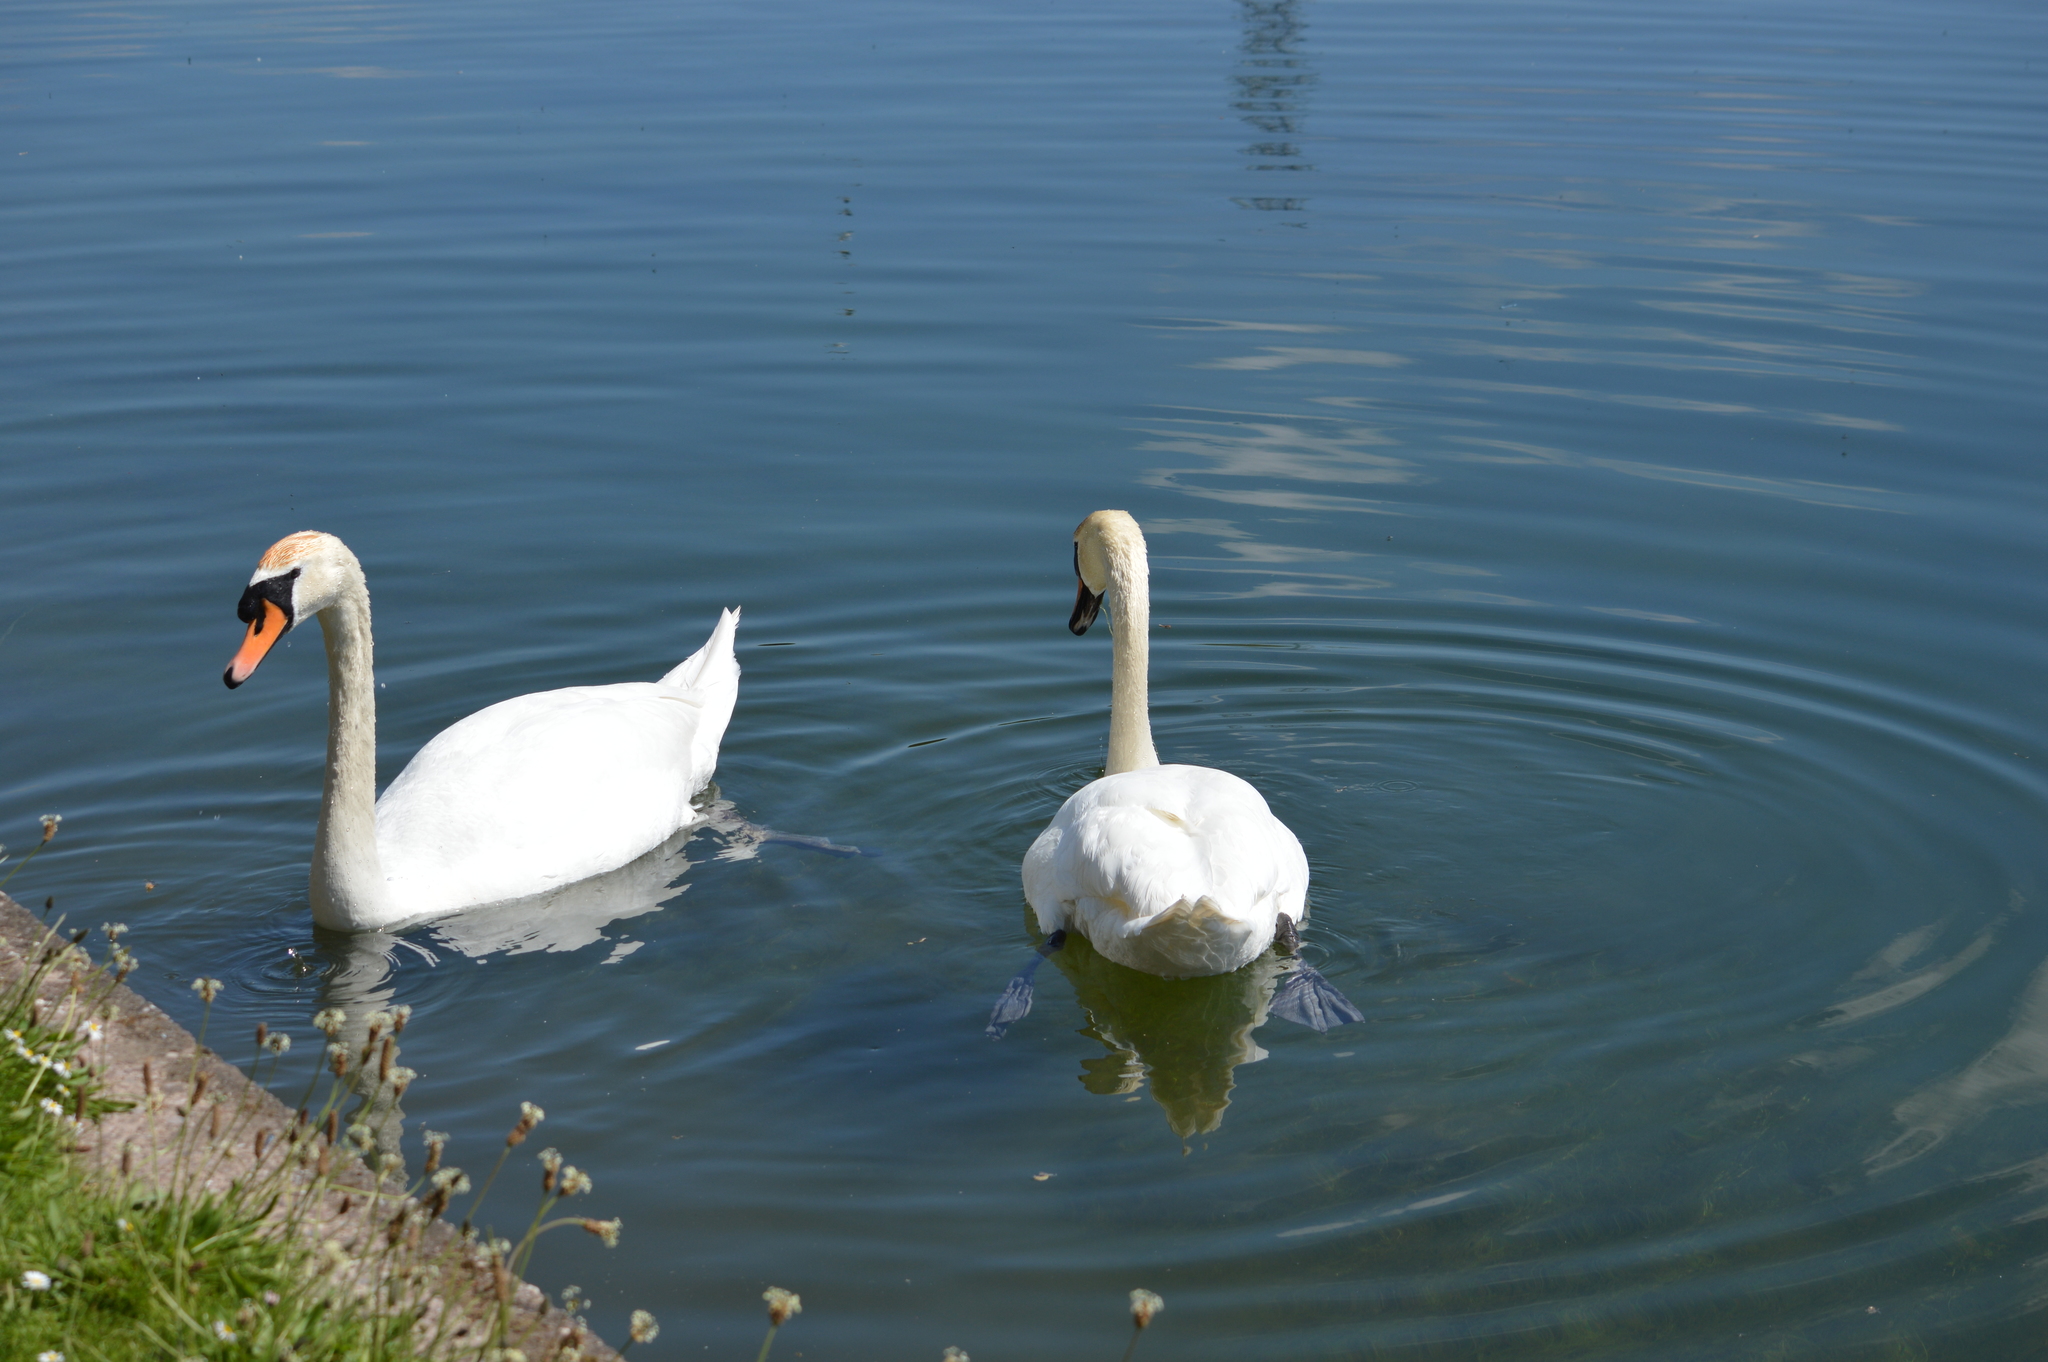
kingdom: Animalia
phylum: Chordata
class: Aves
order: Anseriformes
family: Anatidae
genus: Cygnus
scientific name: Cygnus olor
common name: Mute swan
